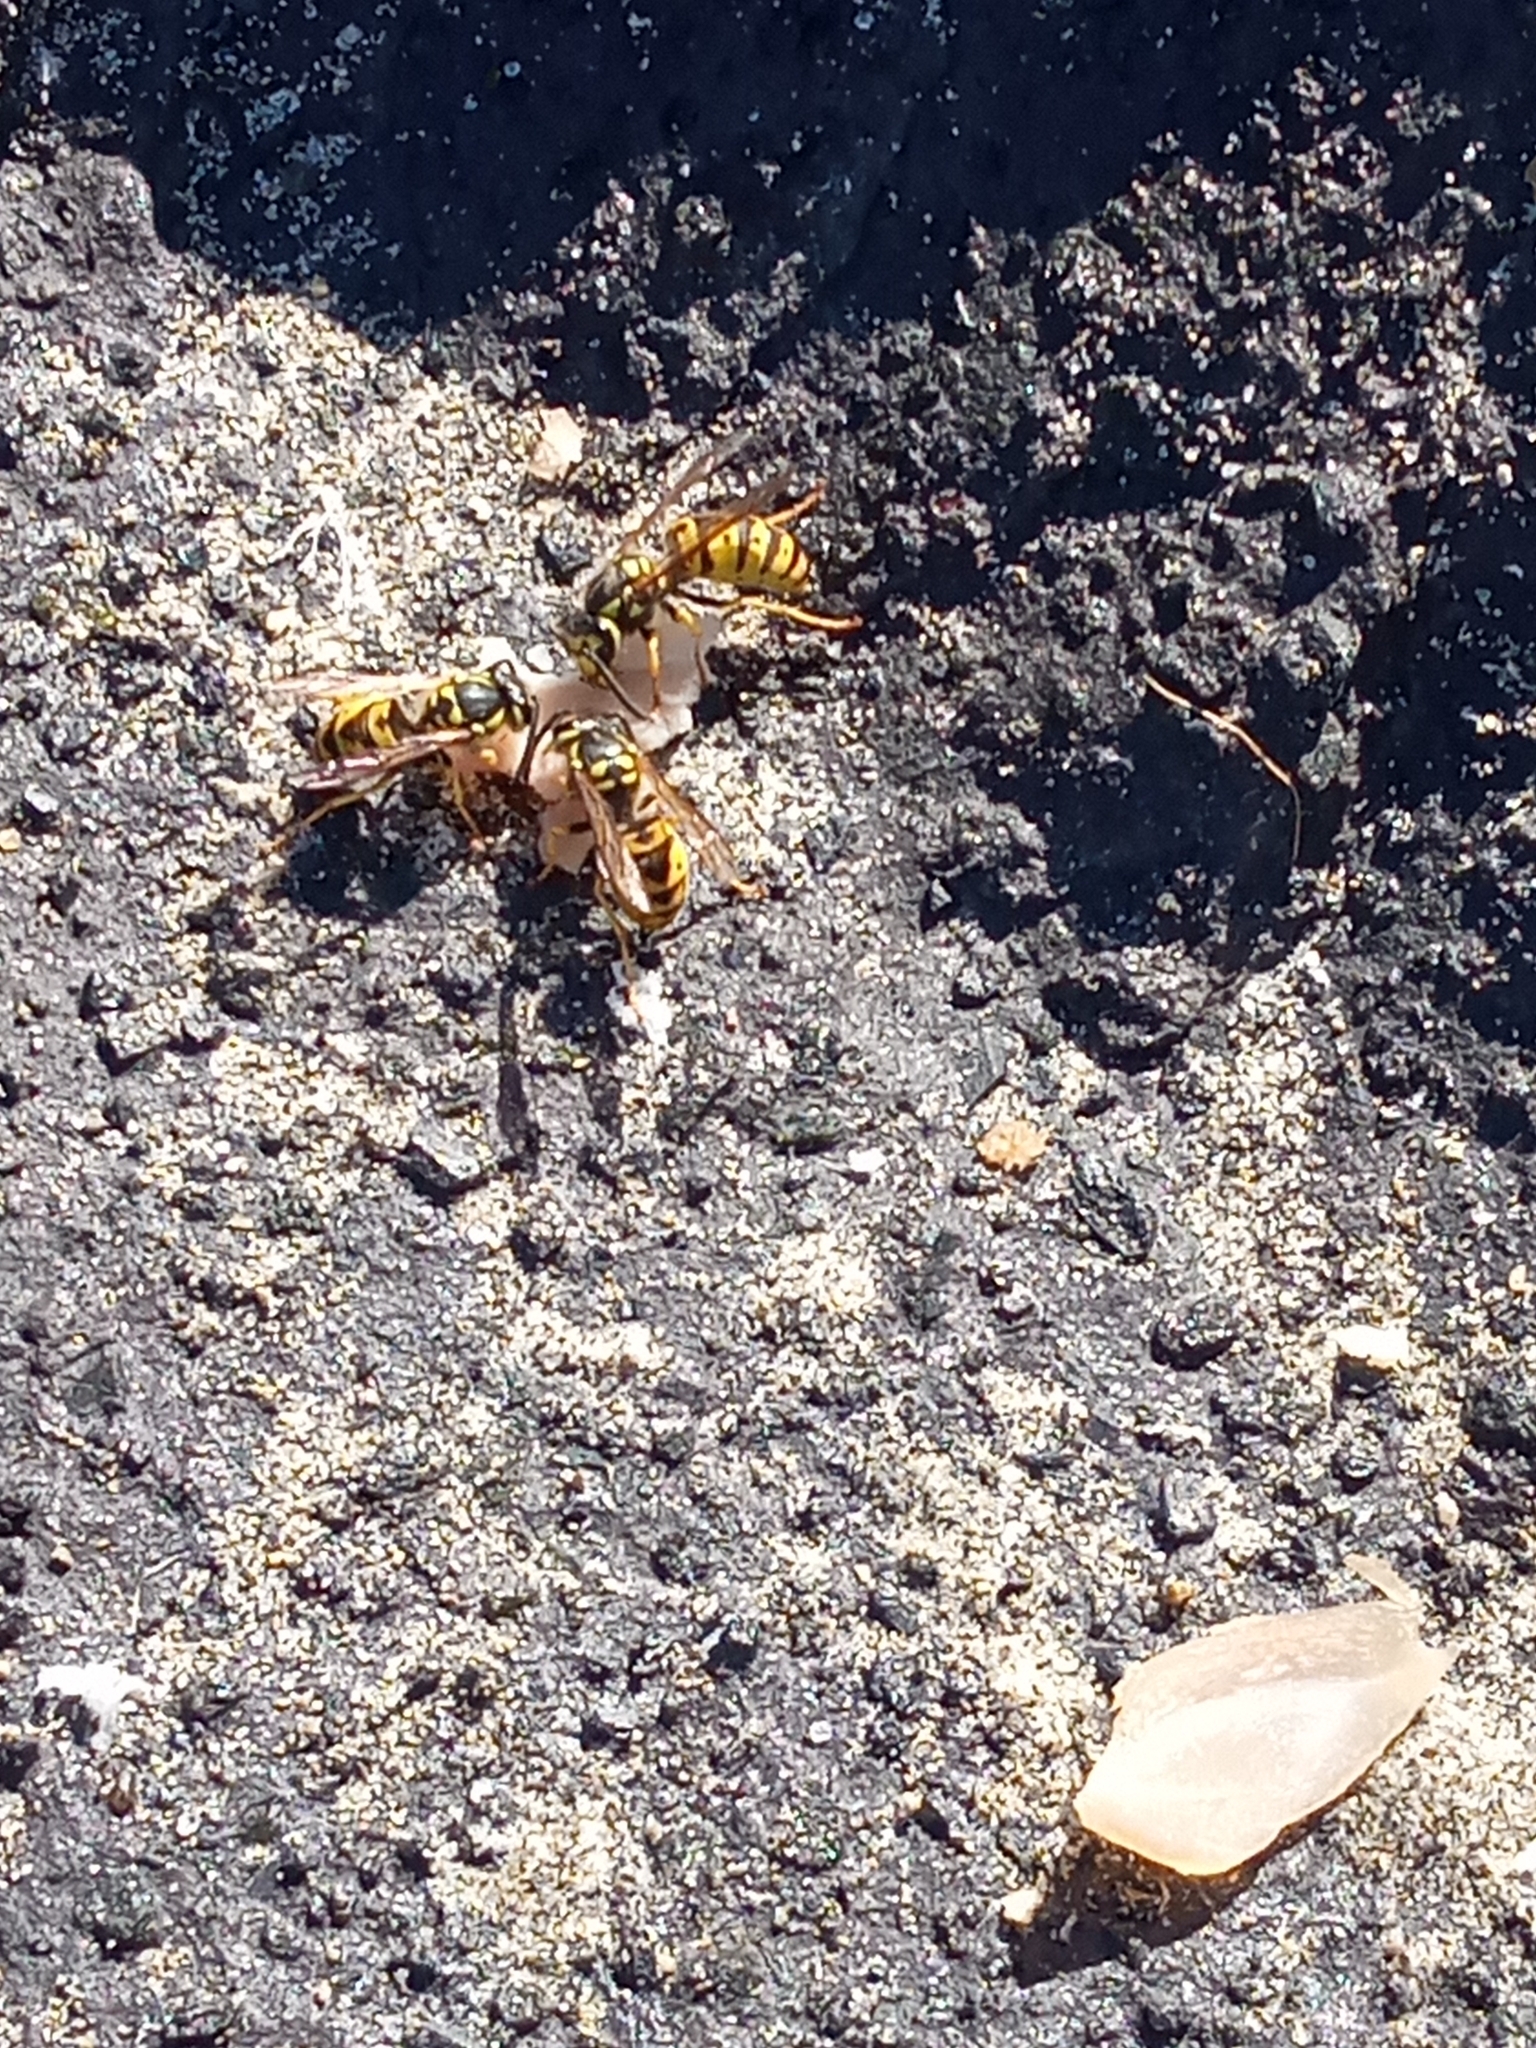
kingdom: Animalia
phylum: Arthropoda
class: Insecta
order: Hymenoptera
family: Vespidae
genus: Vespula
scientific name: Vespula germanica
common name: German wasp
